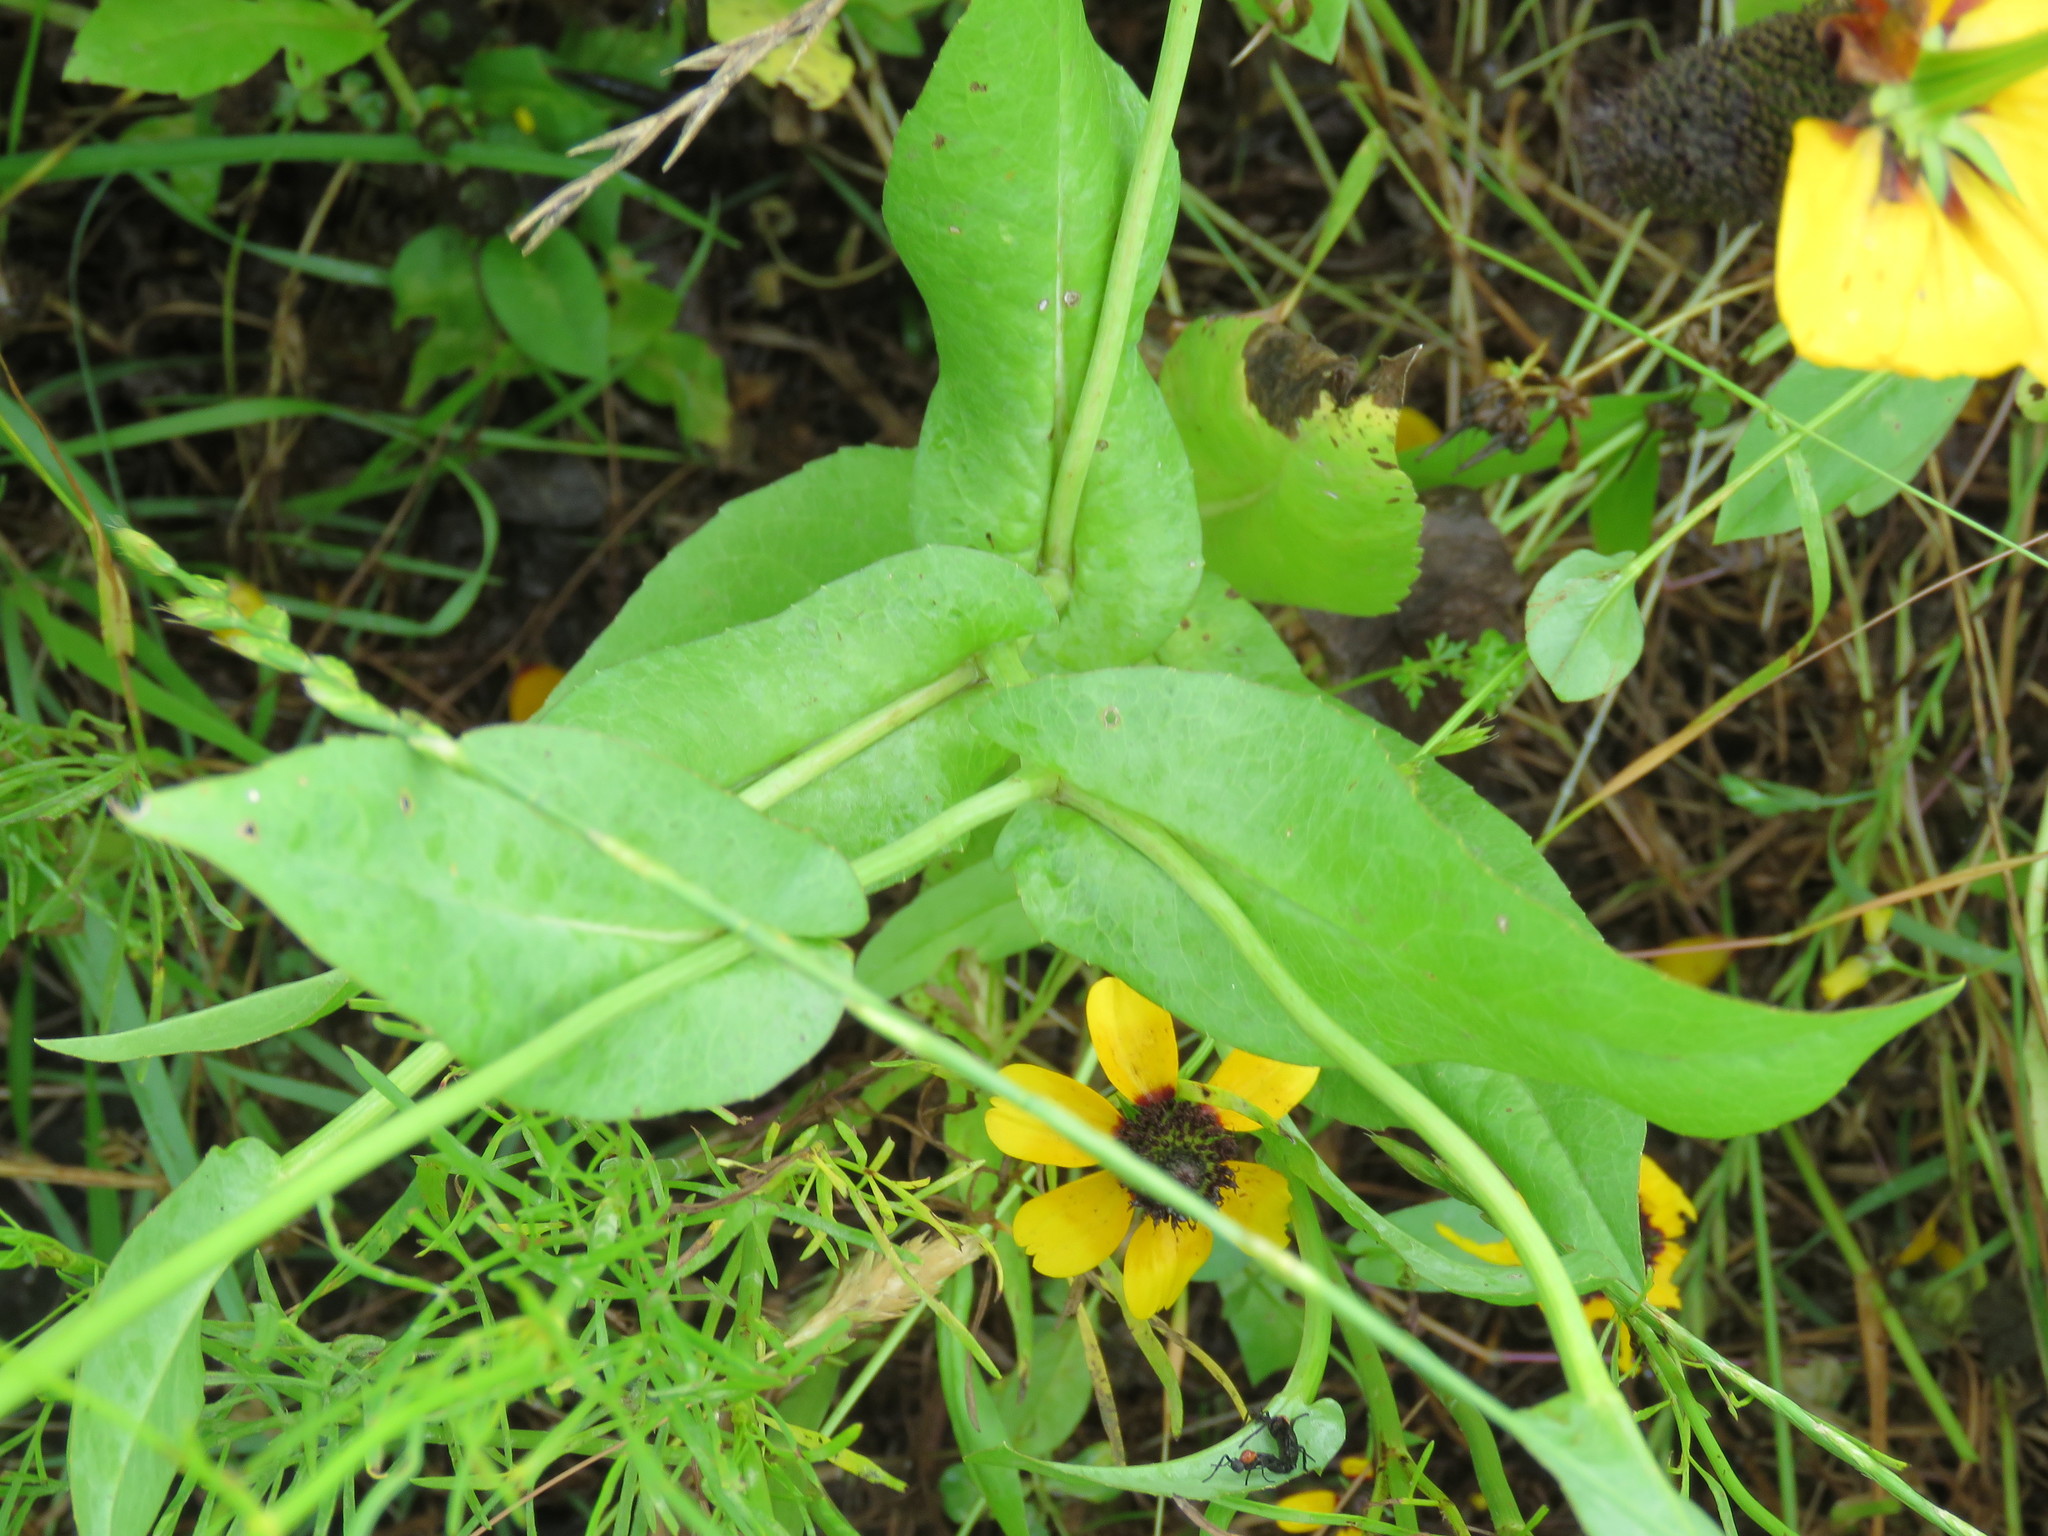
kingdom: Plantae
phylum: Tracheophyta
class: Magnoliopsida
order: Asterales
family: Asteraceae
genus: Rudbeckia
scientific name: Rudbeckia amplexicaulis
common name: Clasping-leaf coneflower
